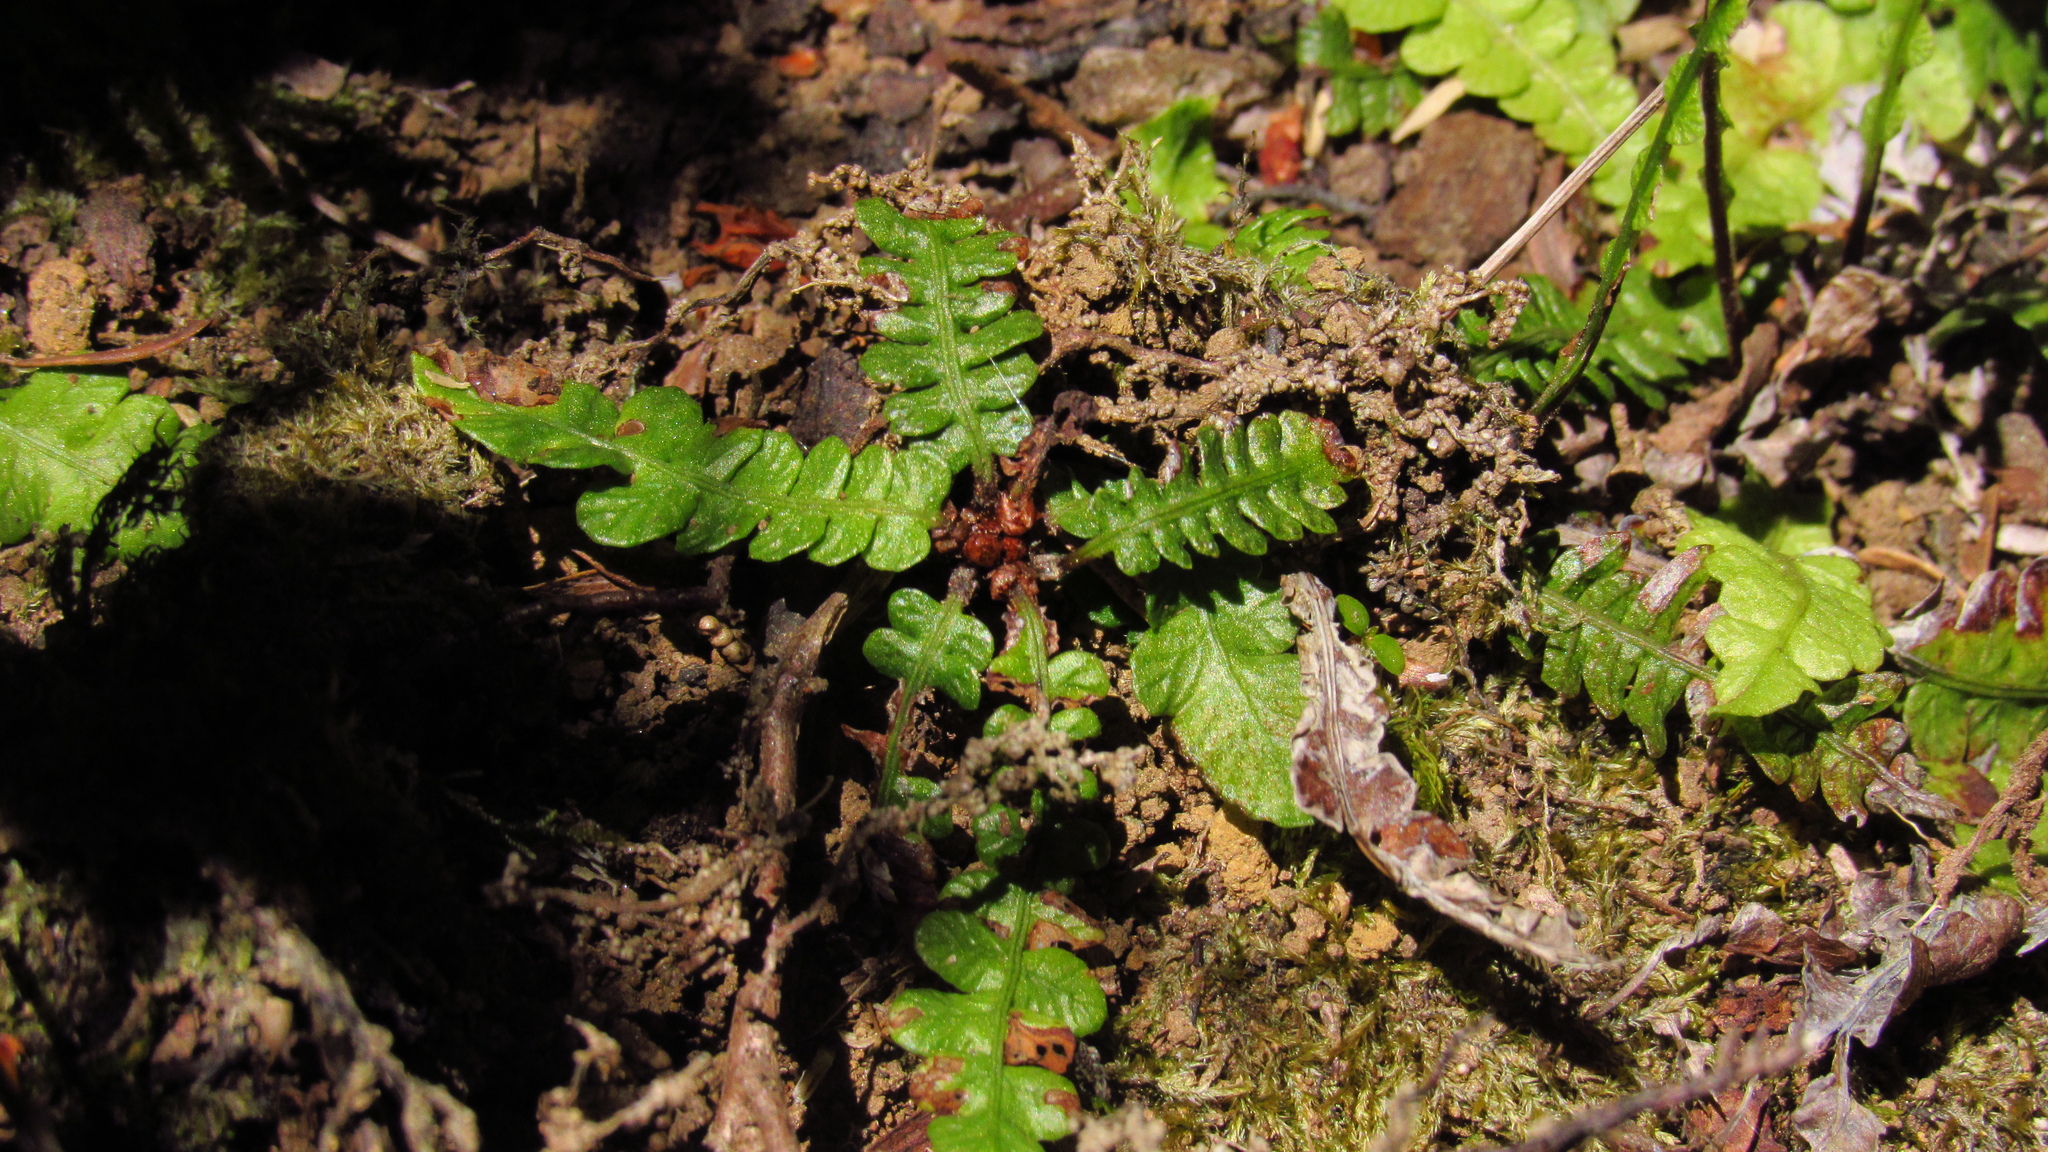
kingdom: Plantae
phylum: Tracheophyta
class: Polypodiopsida
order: Polypodiales
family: Blechnaceae
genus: Blechnum
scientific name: Blechnum corralense
